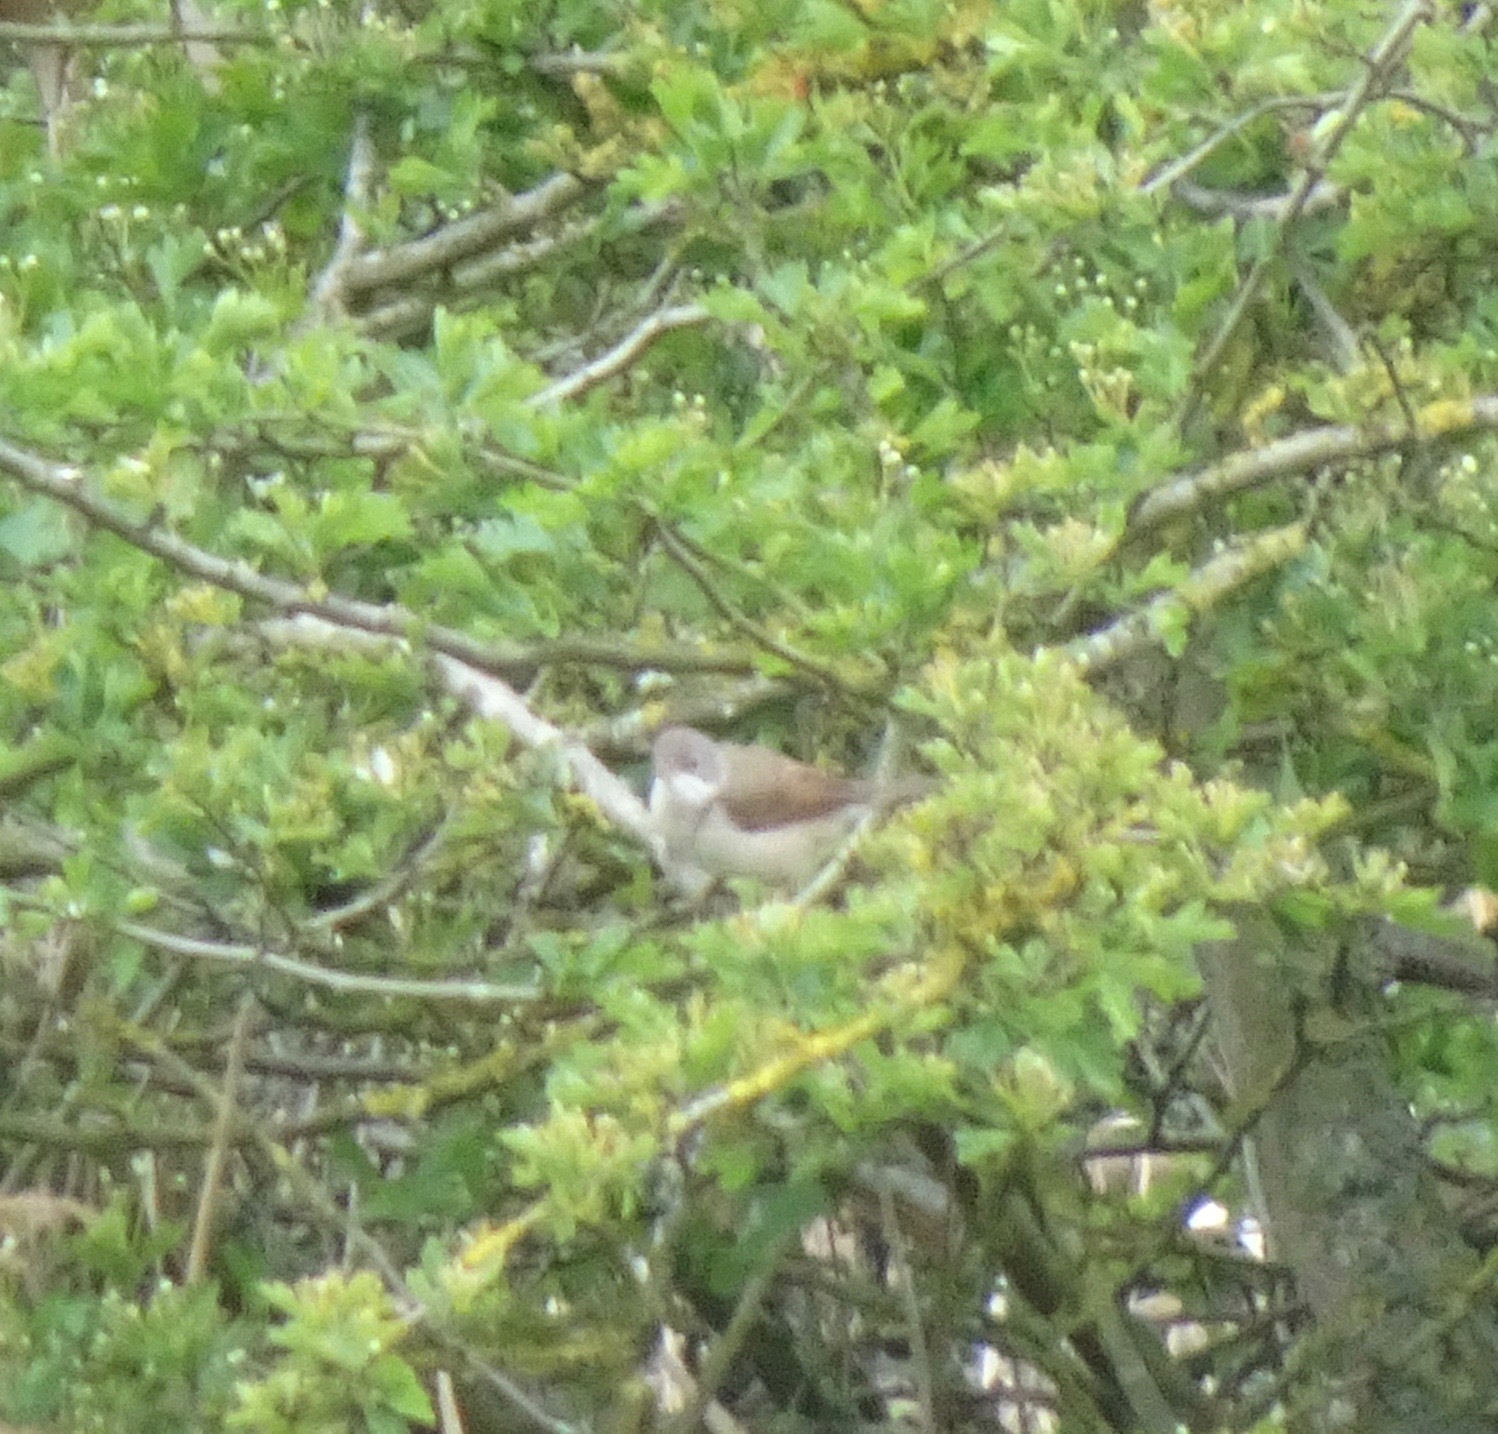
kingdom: Animalia
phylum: Chordata
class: Aves
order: Passeriformes
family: Sylviidae
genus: Sylvia
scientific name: Sylvia communis
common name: Common whitethroat
